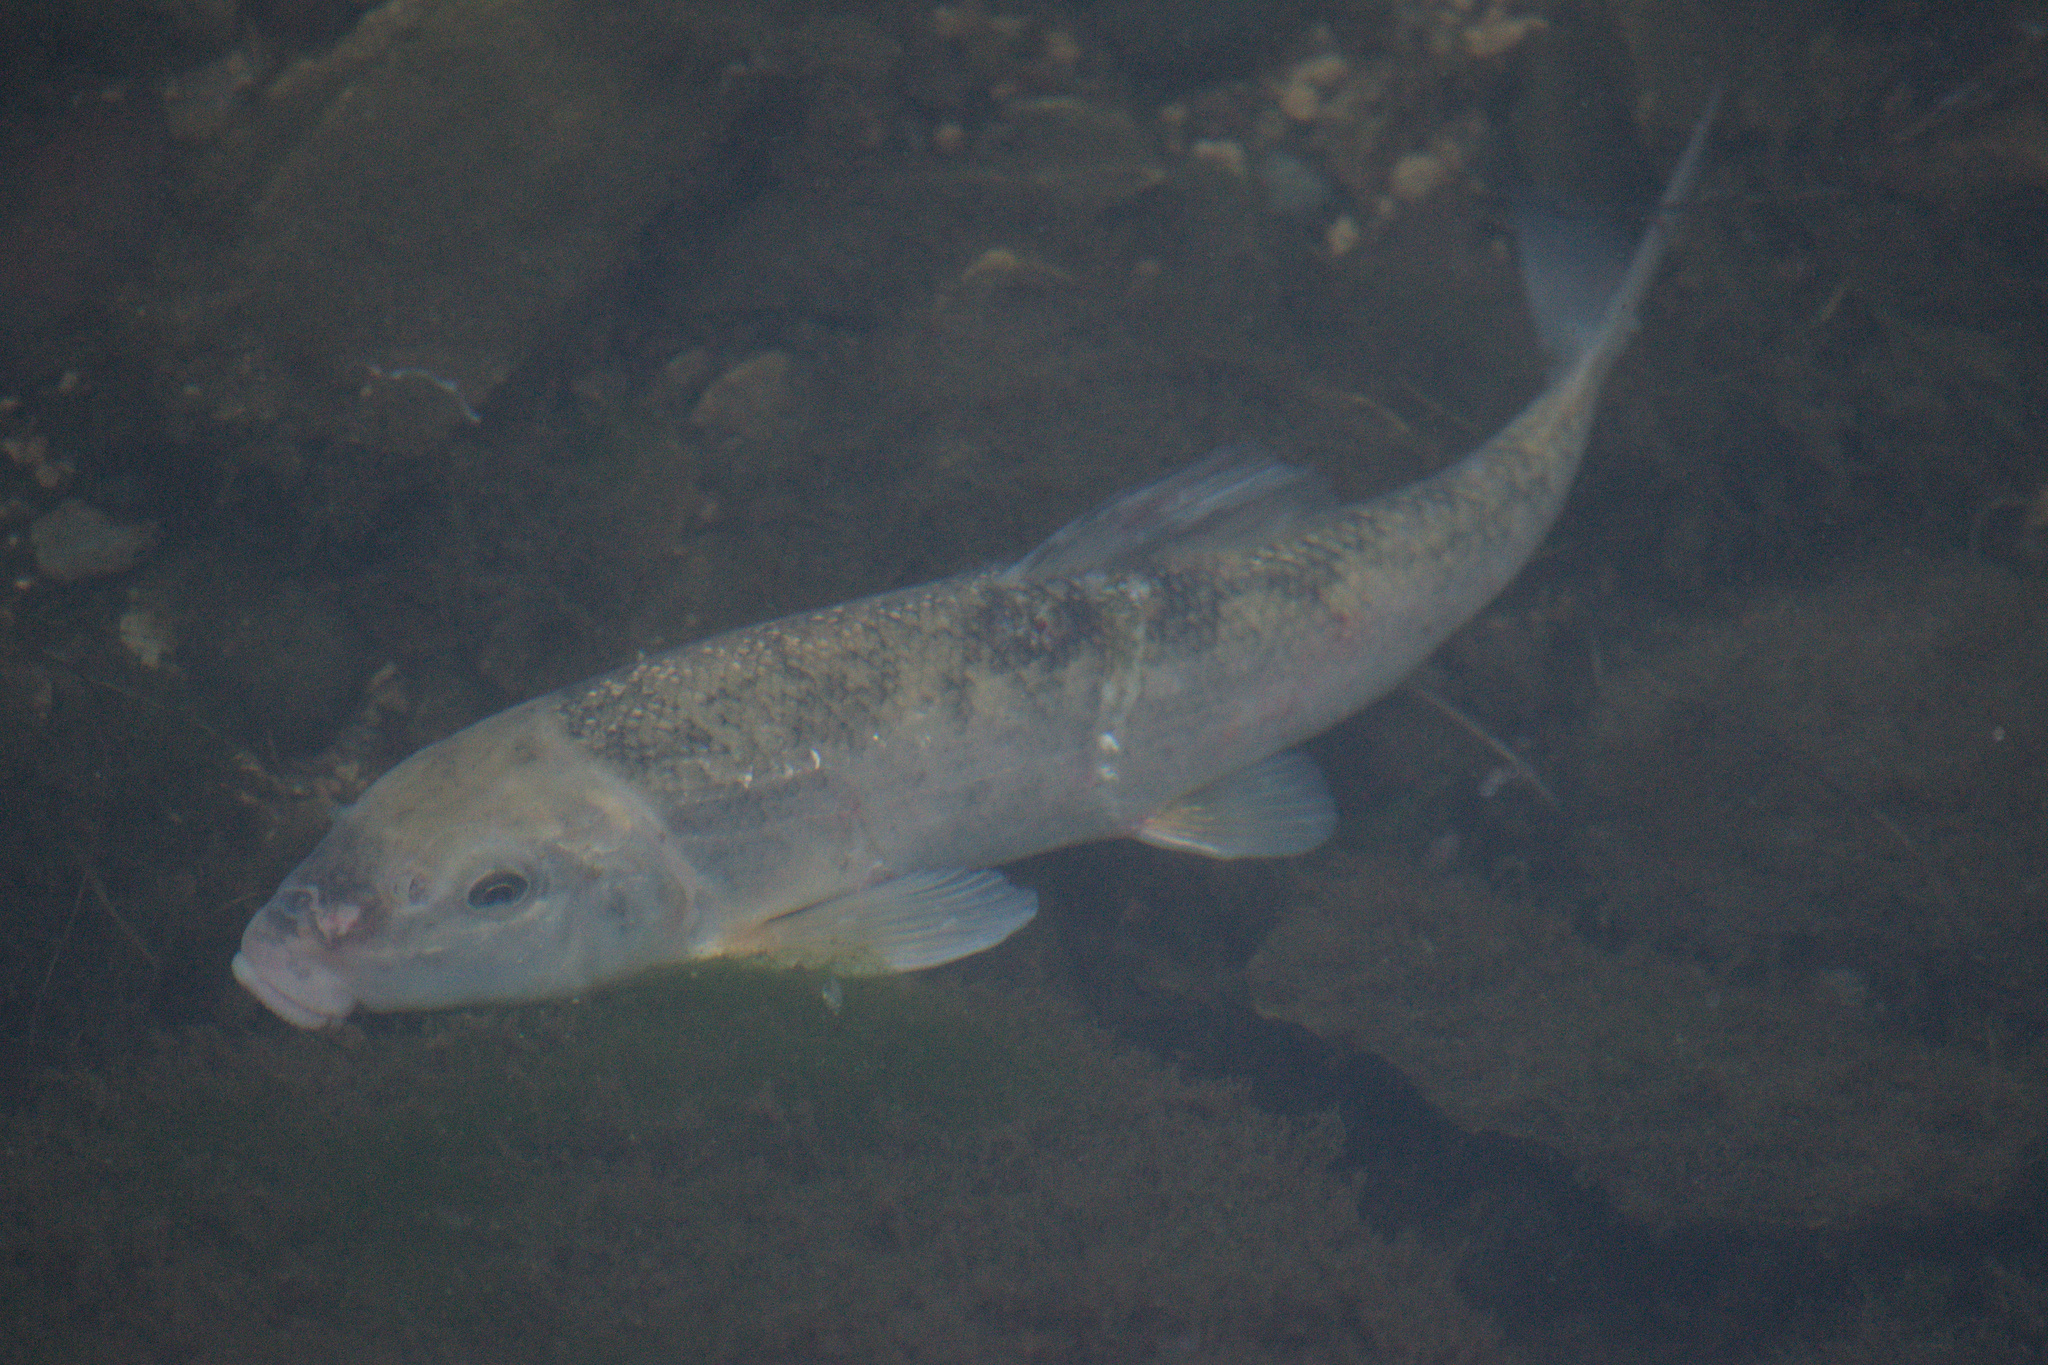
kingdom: Animalia
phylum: Chordata
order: Cypriniformes
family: Catostomidae
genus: Catostomus
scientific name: Catostomus commersonii
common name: White sucker
